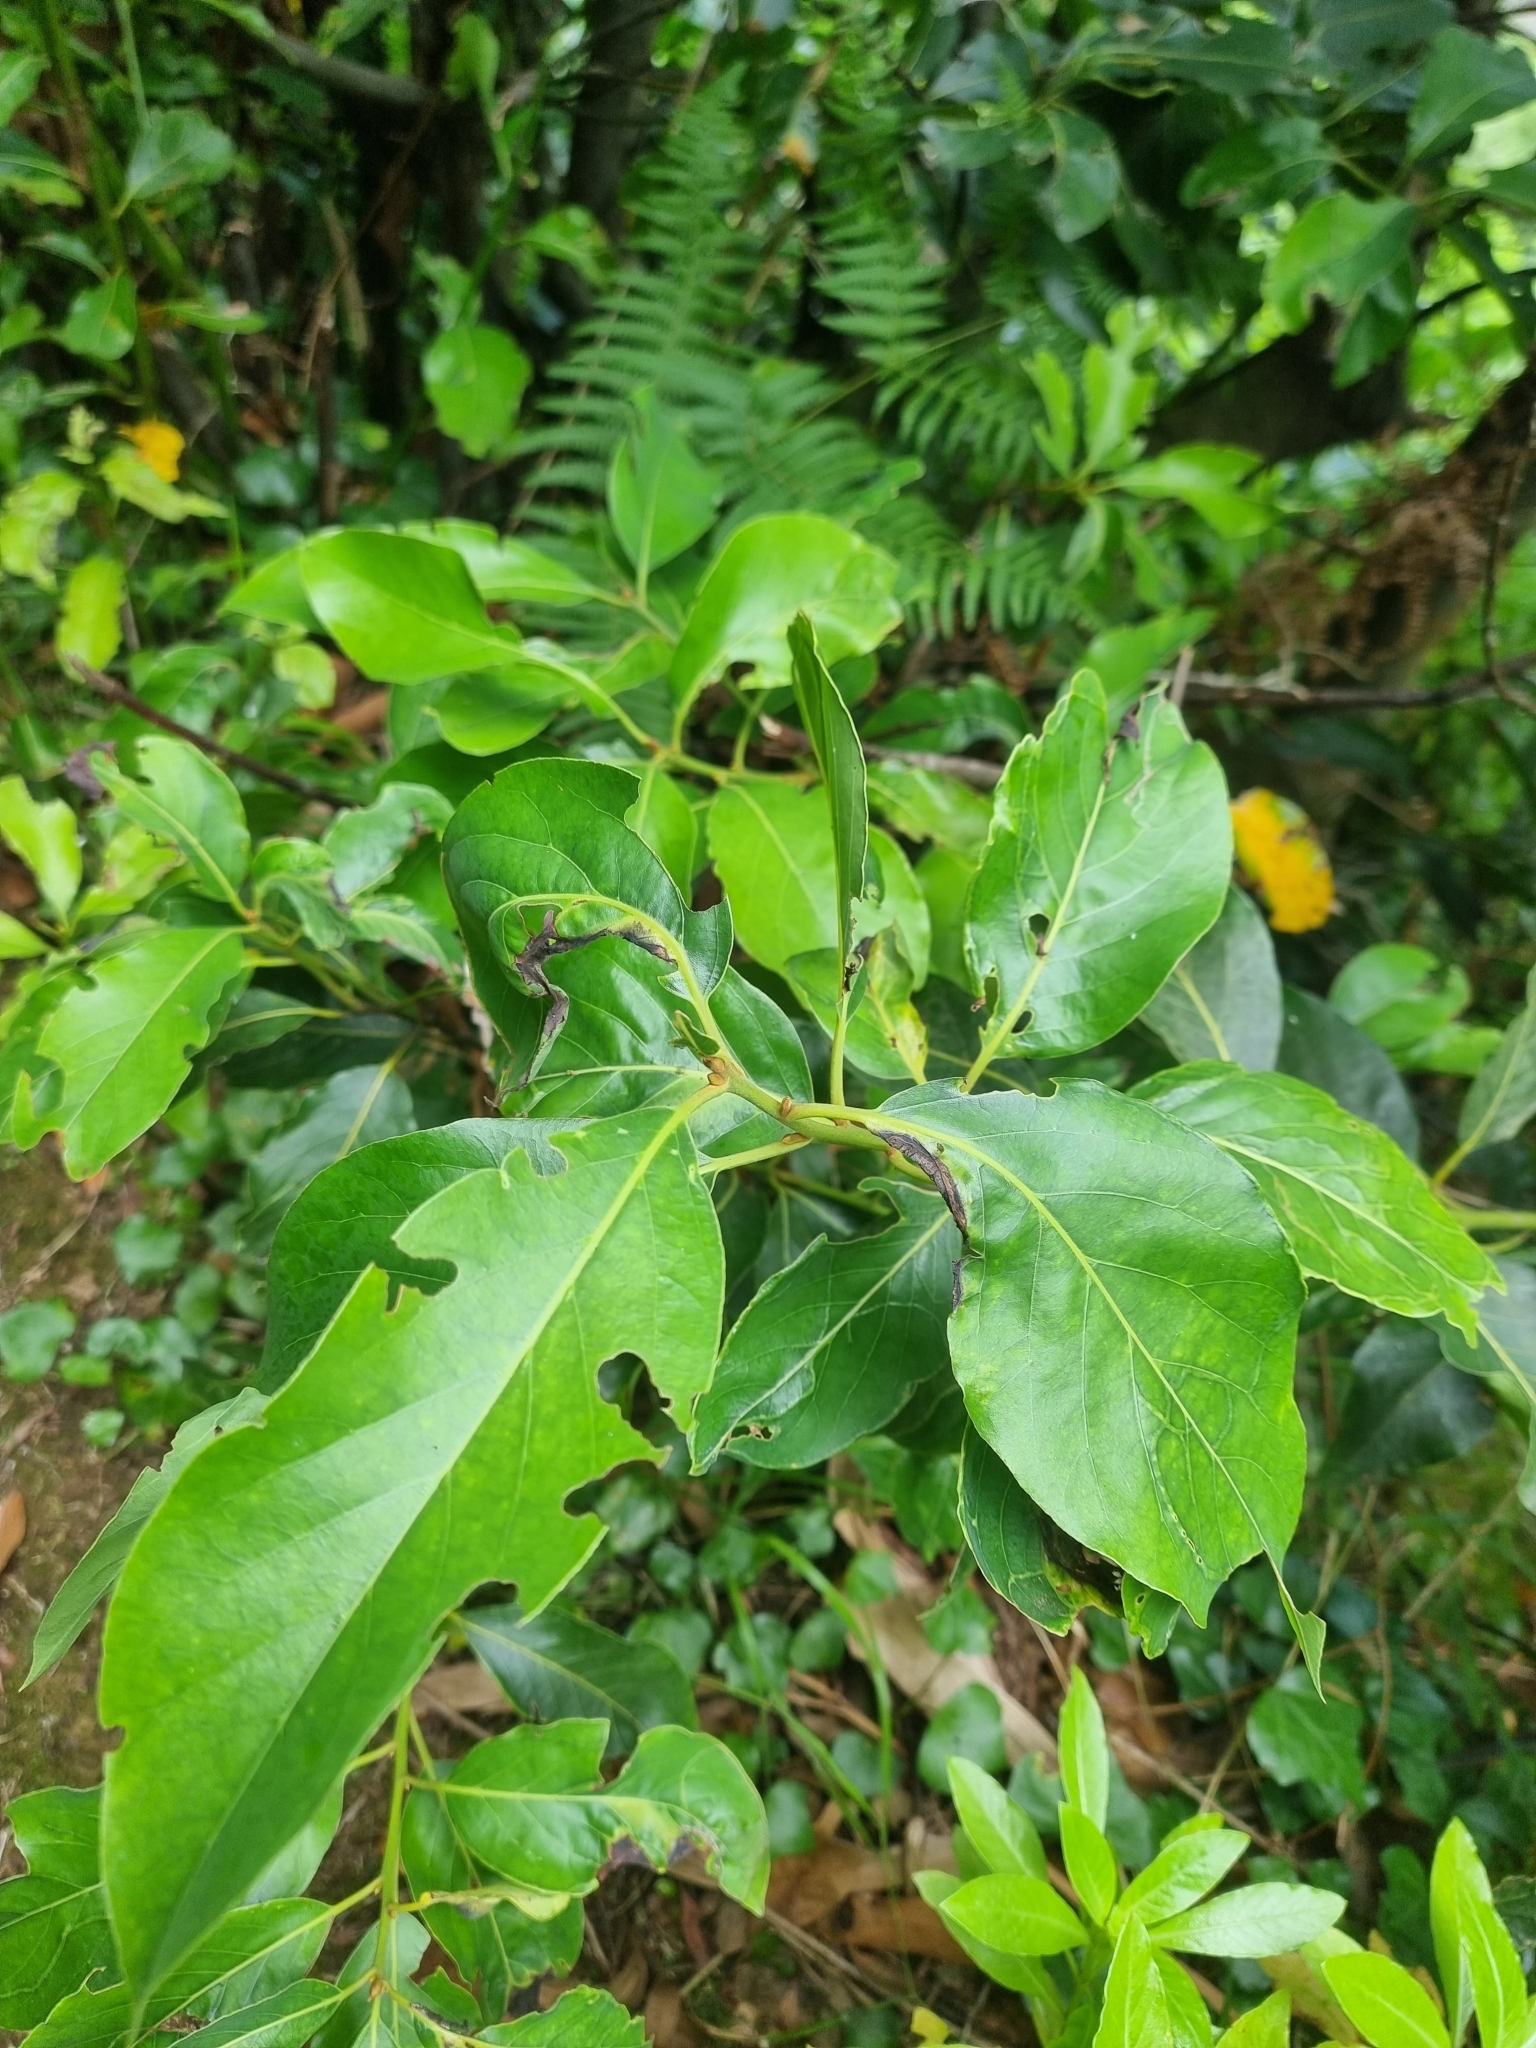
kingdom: Plantae
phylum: Tracheophyta
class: Magnoliopsida
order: Laurales
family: Lauraceae
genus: Laurus
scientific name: Laurus novocanariensis
